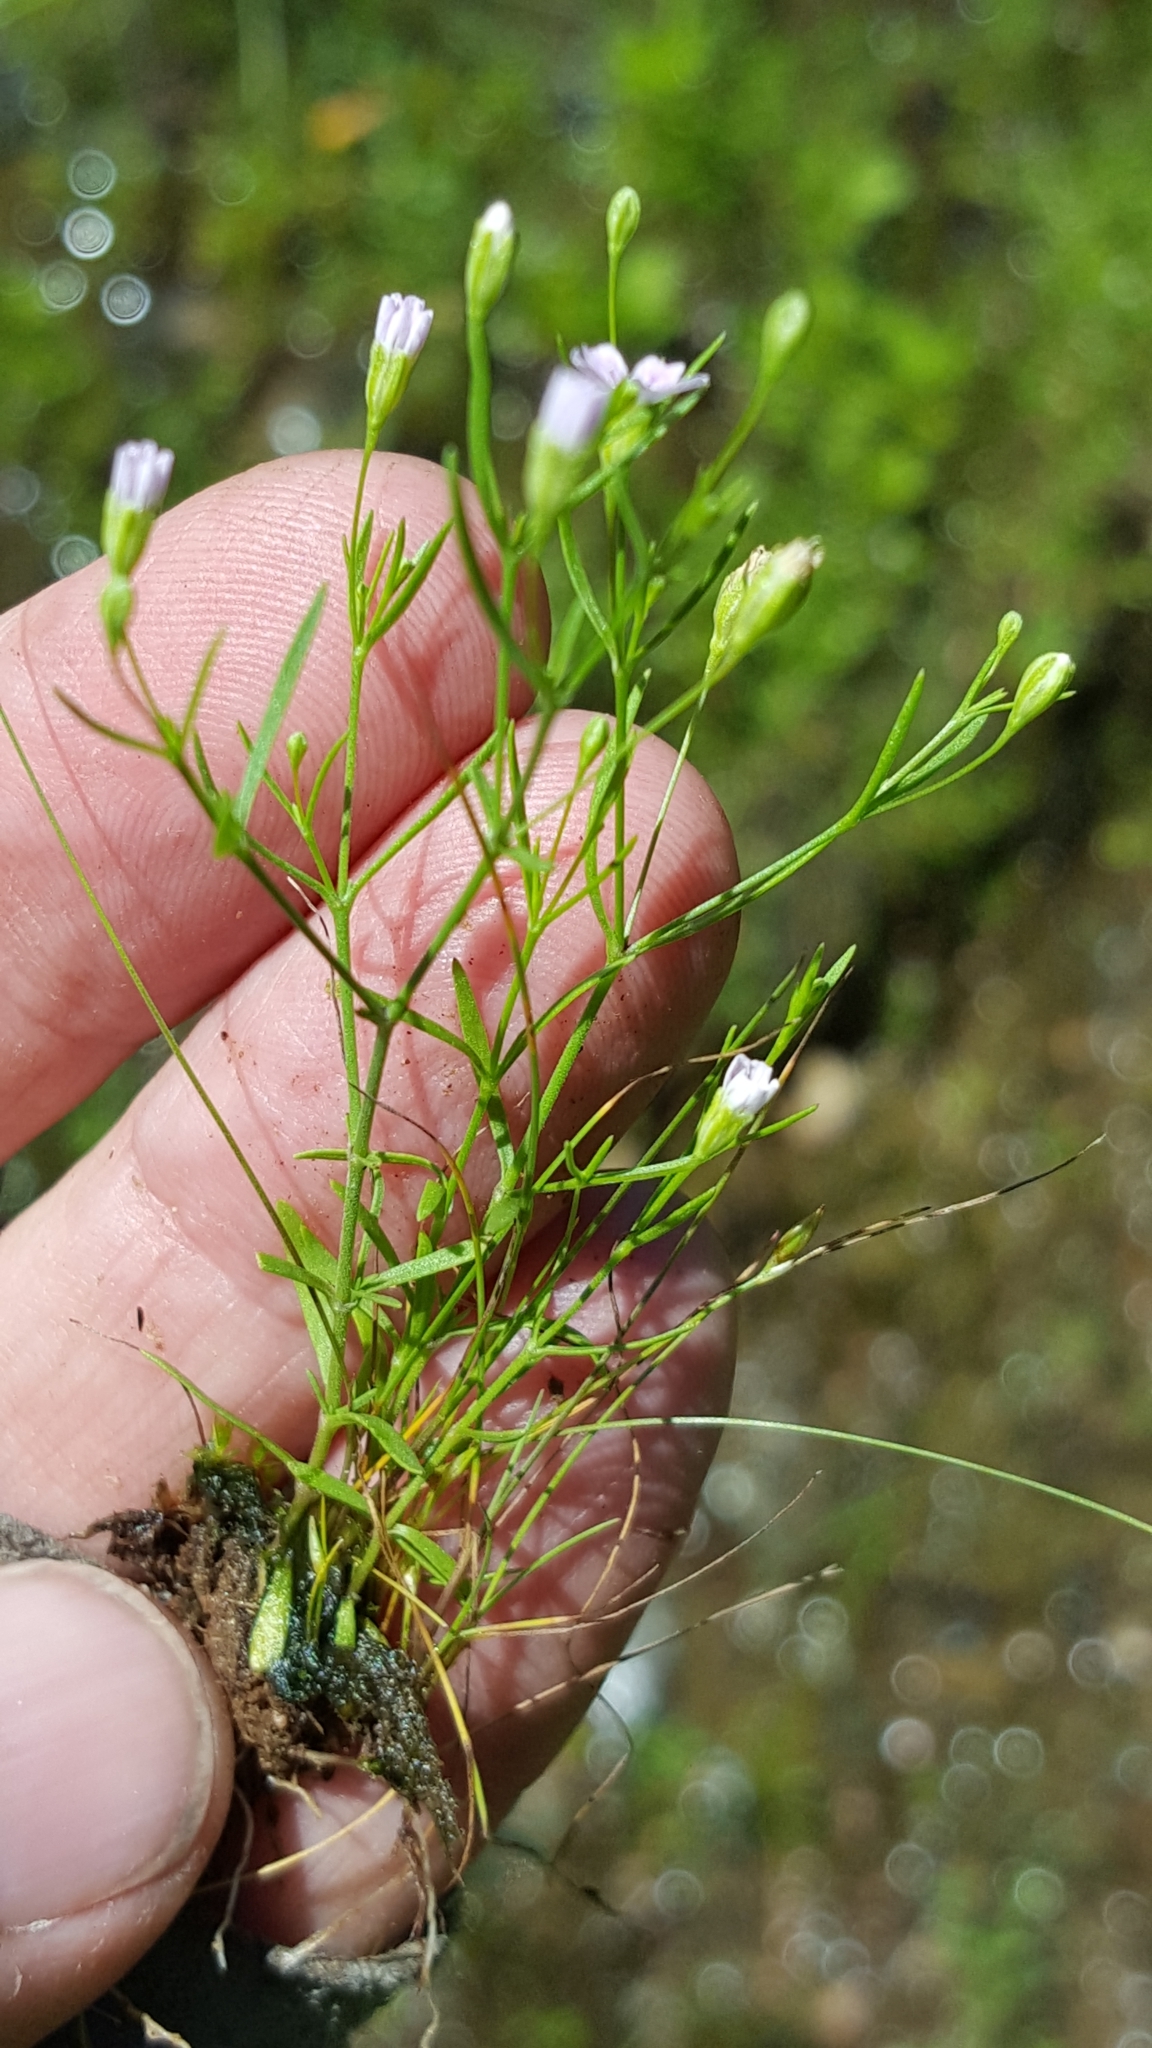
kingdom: Plantae
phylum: Tracheophyta
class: Magnoliopsida
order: Caryophyllales
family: Caryophyllaceae
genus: Psammophiliella
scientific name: Psammophiliella muralis
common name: Cushion baby's-breath
